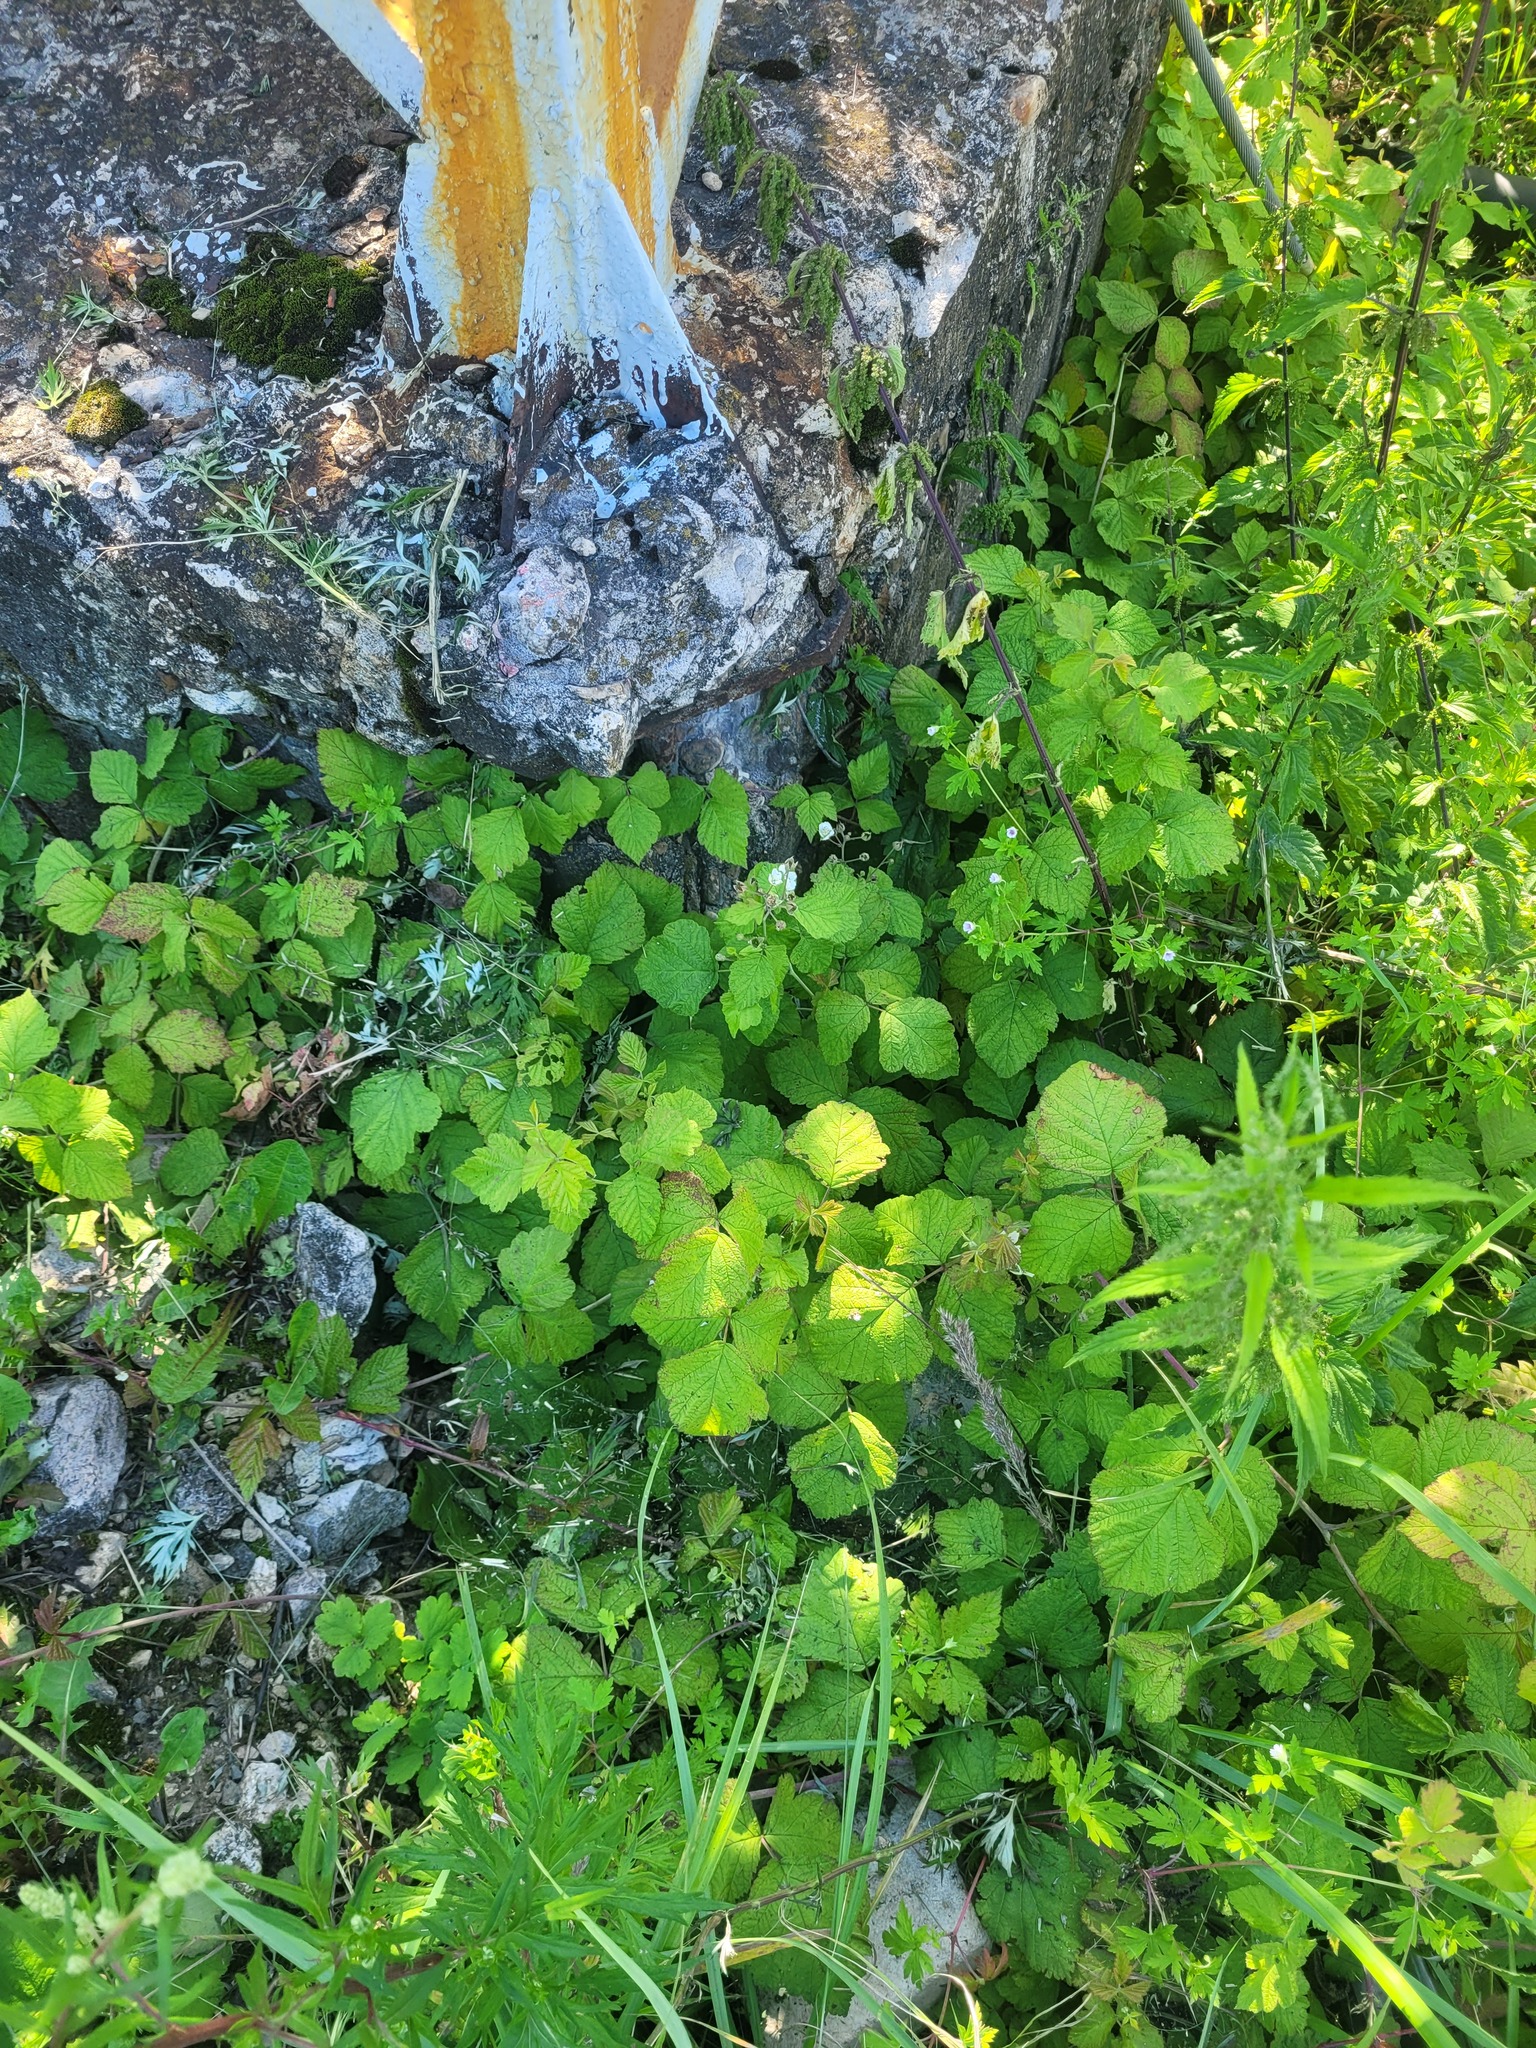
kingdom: Plantae
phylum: Tracheophyta
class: Magnoliopsida
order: Asterales
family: Asteraceae
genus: Tussilago
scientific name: Tussilago farfara
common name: Coltsfoot
